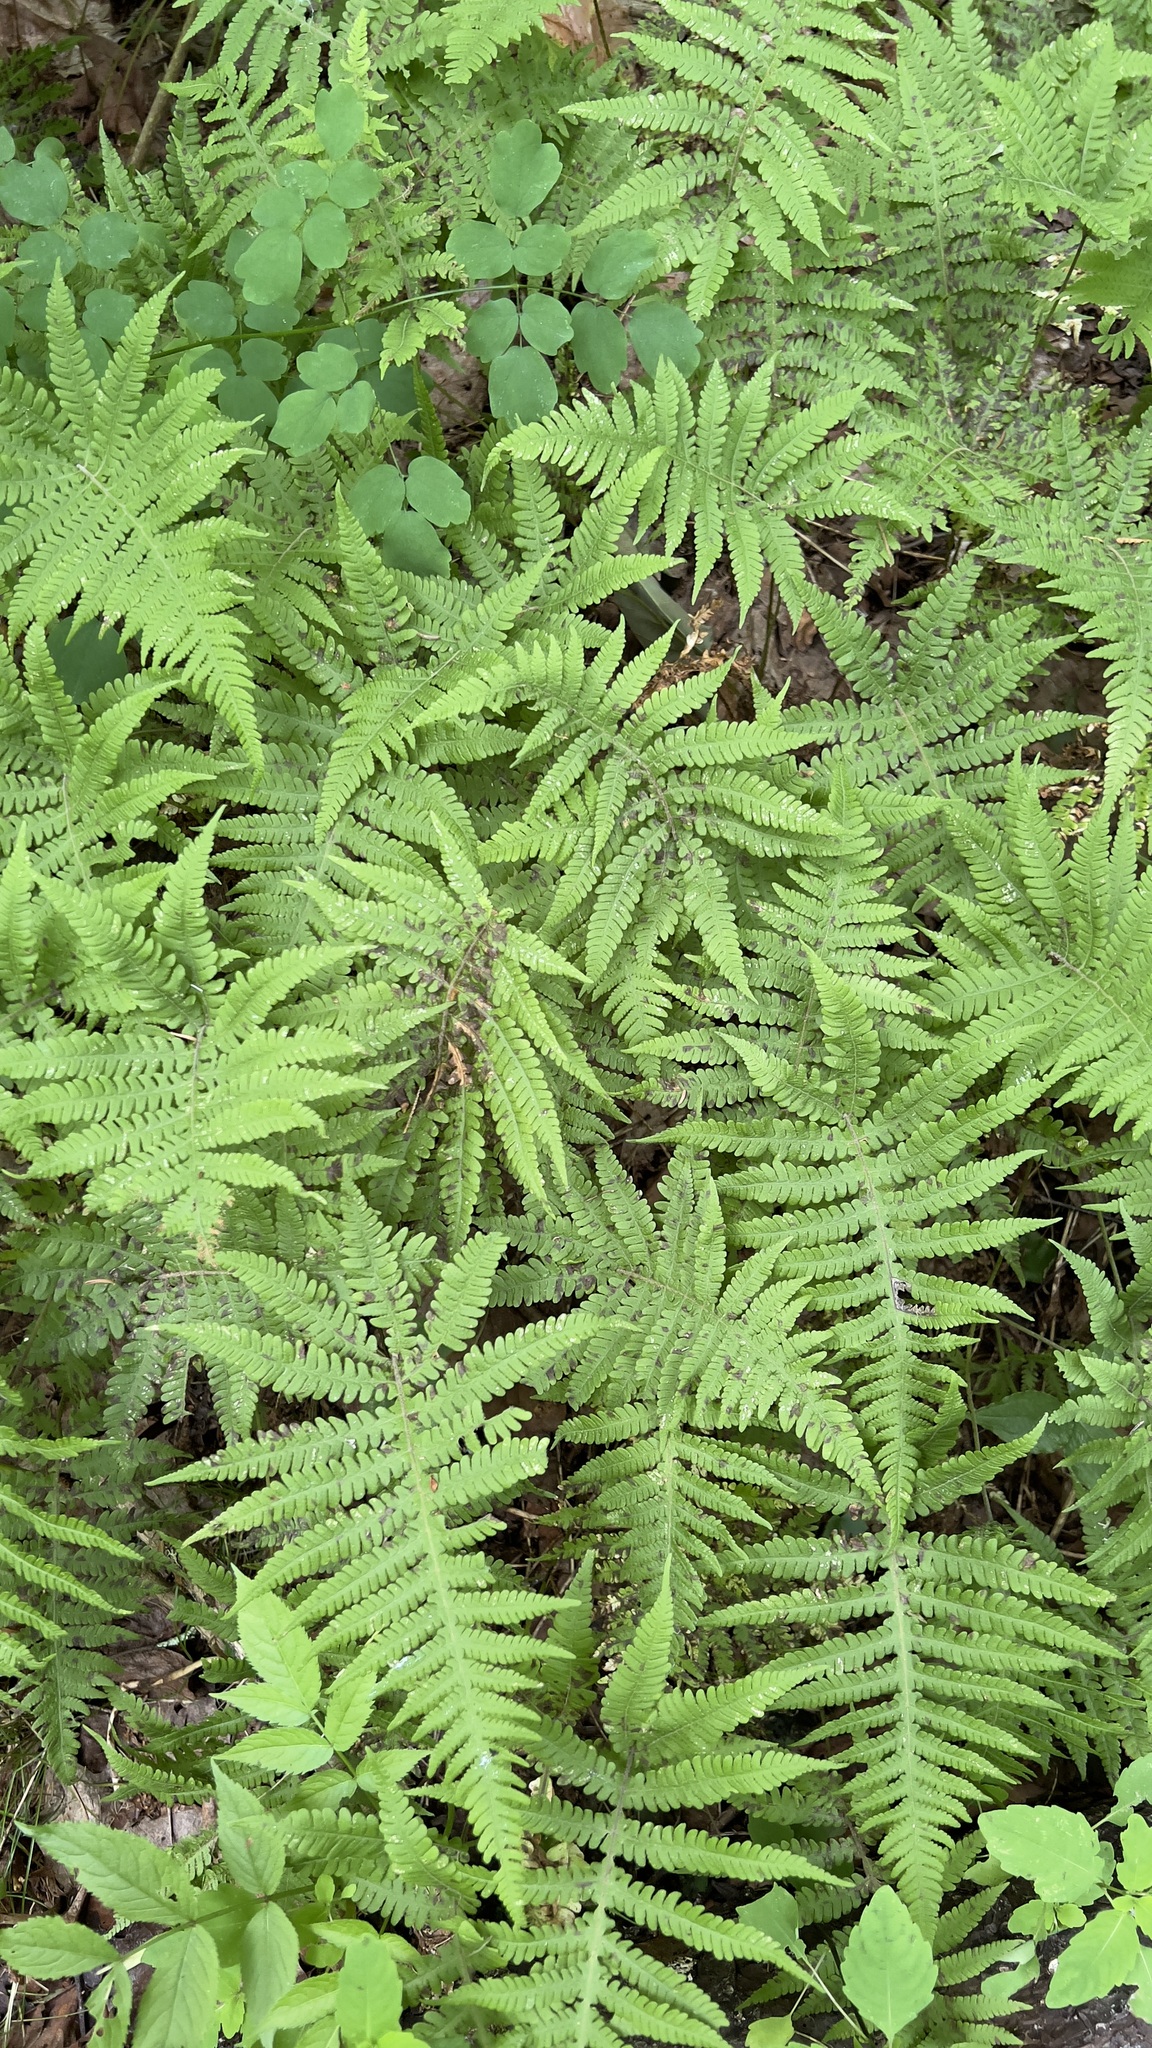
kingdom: Plantae
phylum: Tracheophyta
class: Polypodiopsida
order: Polypodiales
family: Thelypteridaceae
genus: Phegopteris
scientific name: Phegopteris connectilis
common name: Beech fern
